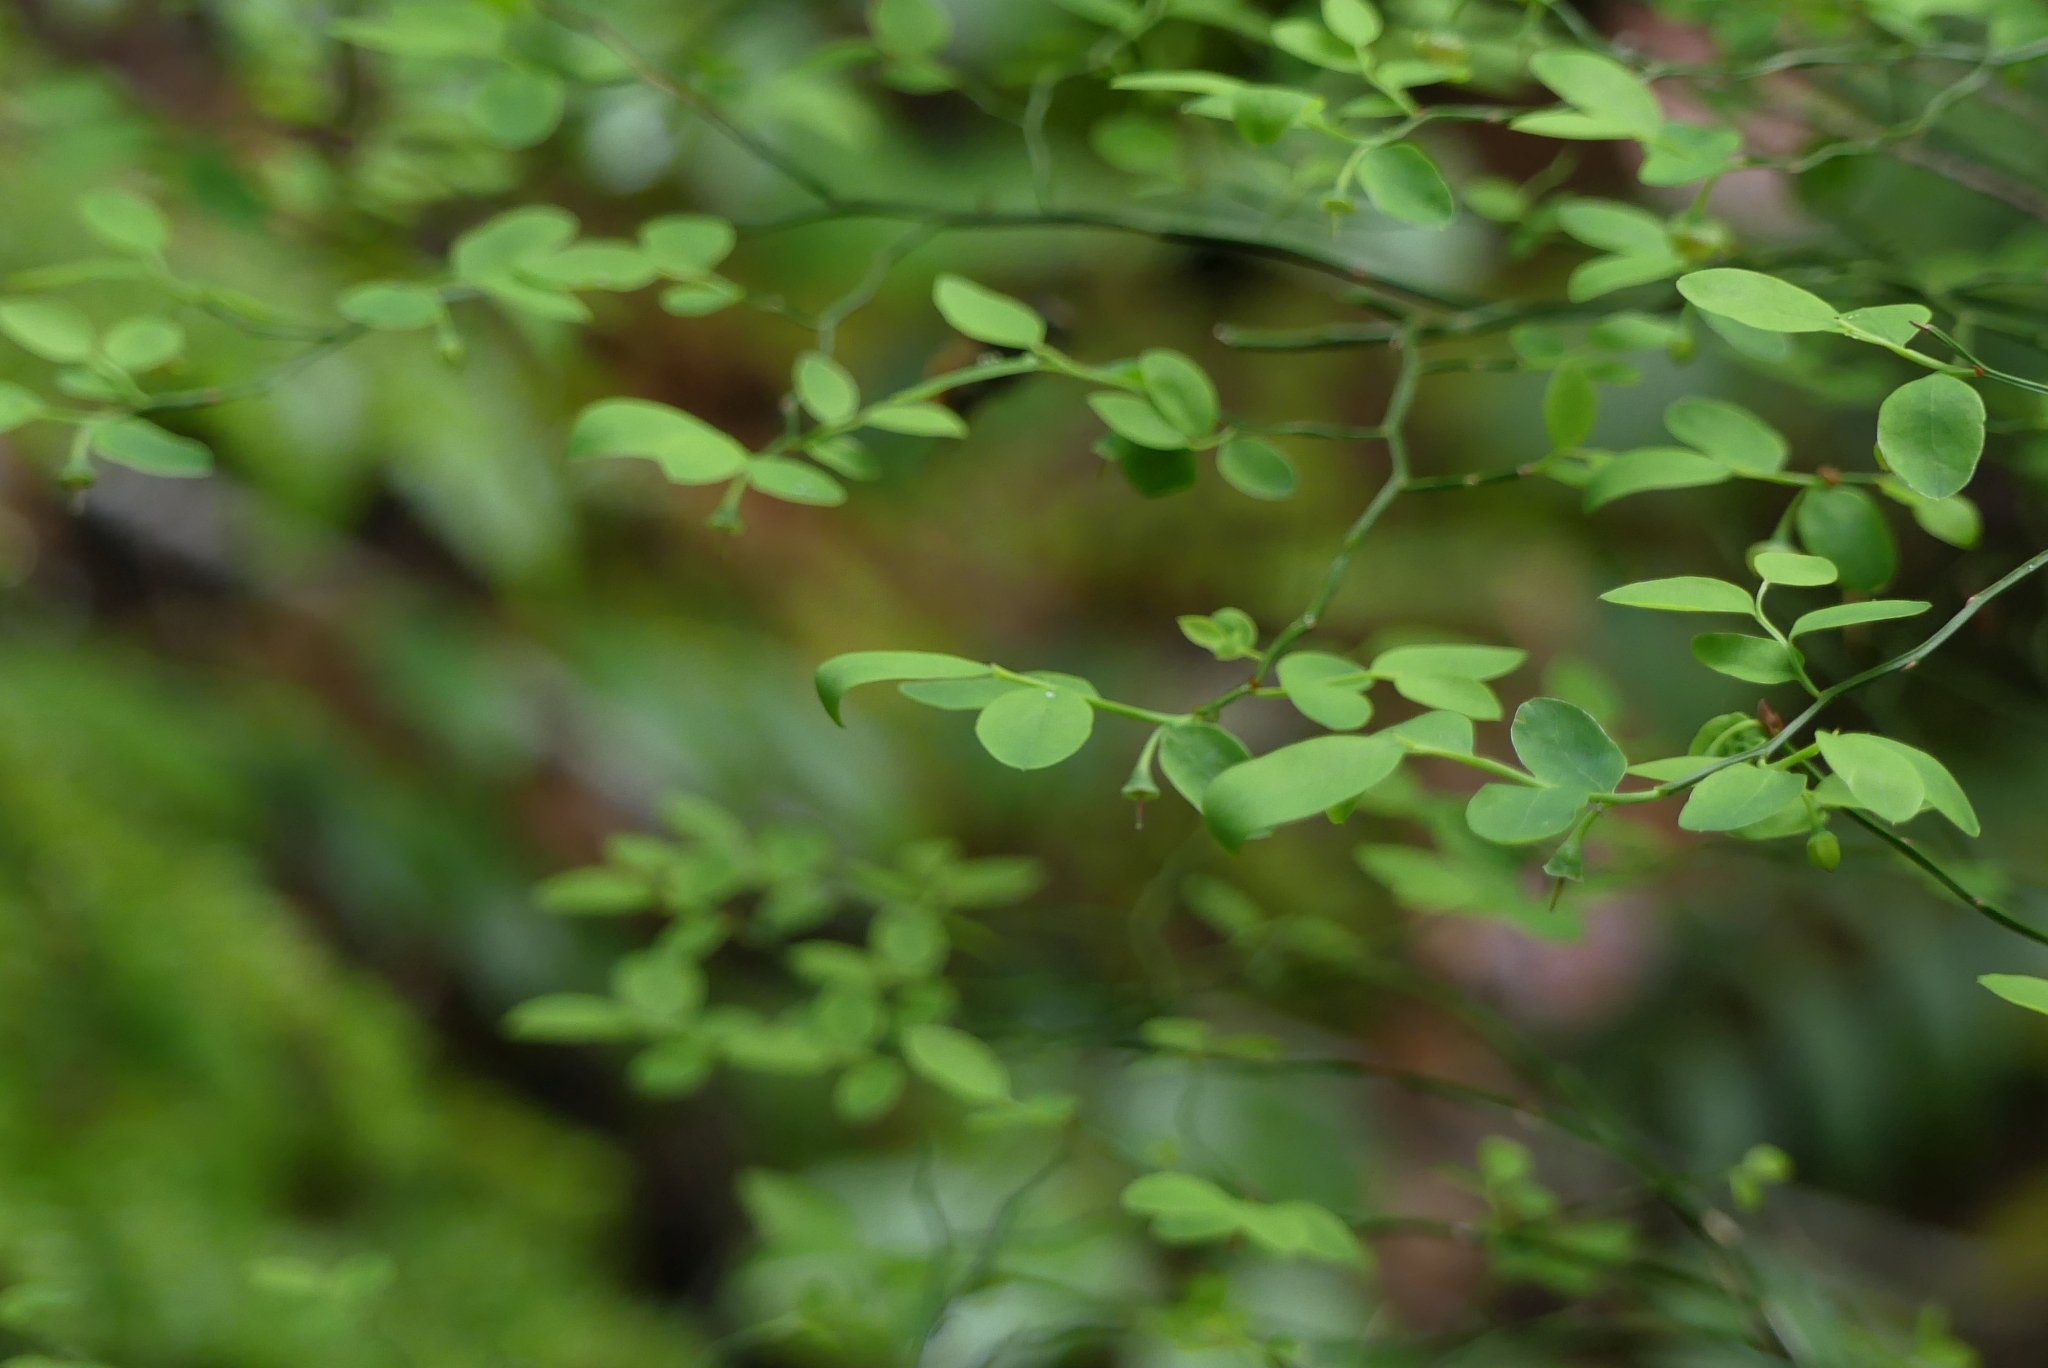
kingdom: Plantae
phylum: Tracheophyta
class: Magnoliopsida
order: Ericales
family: Ericaceae
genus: Vaccinium
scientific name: Vaccinium parvifolium
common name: Red-huckleberry
